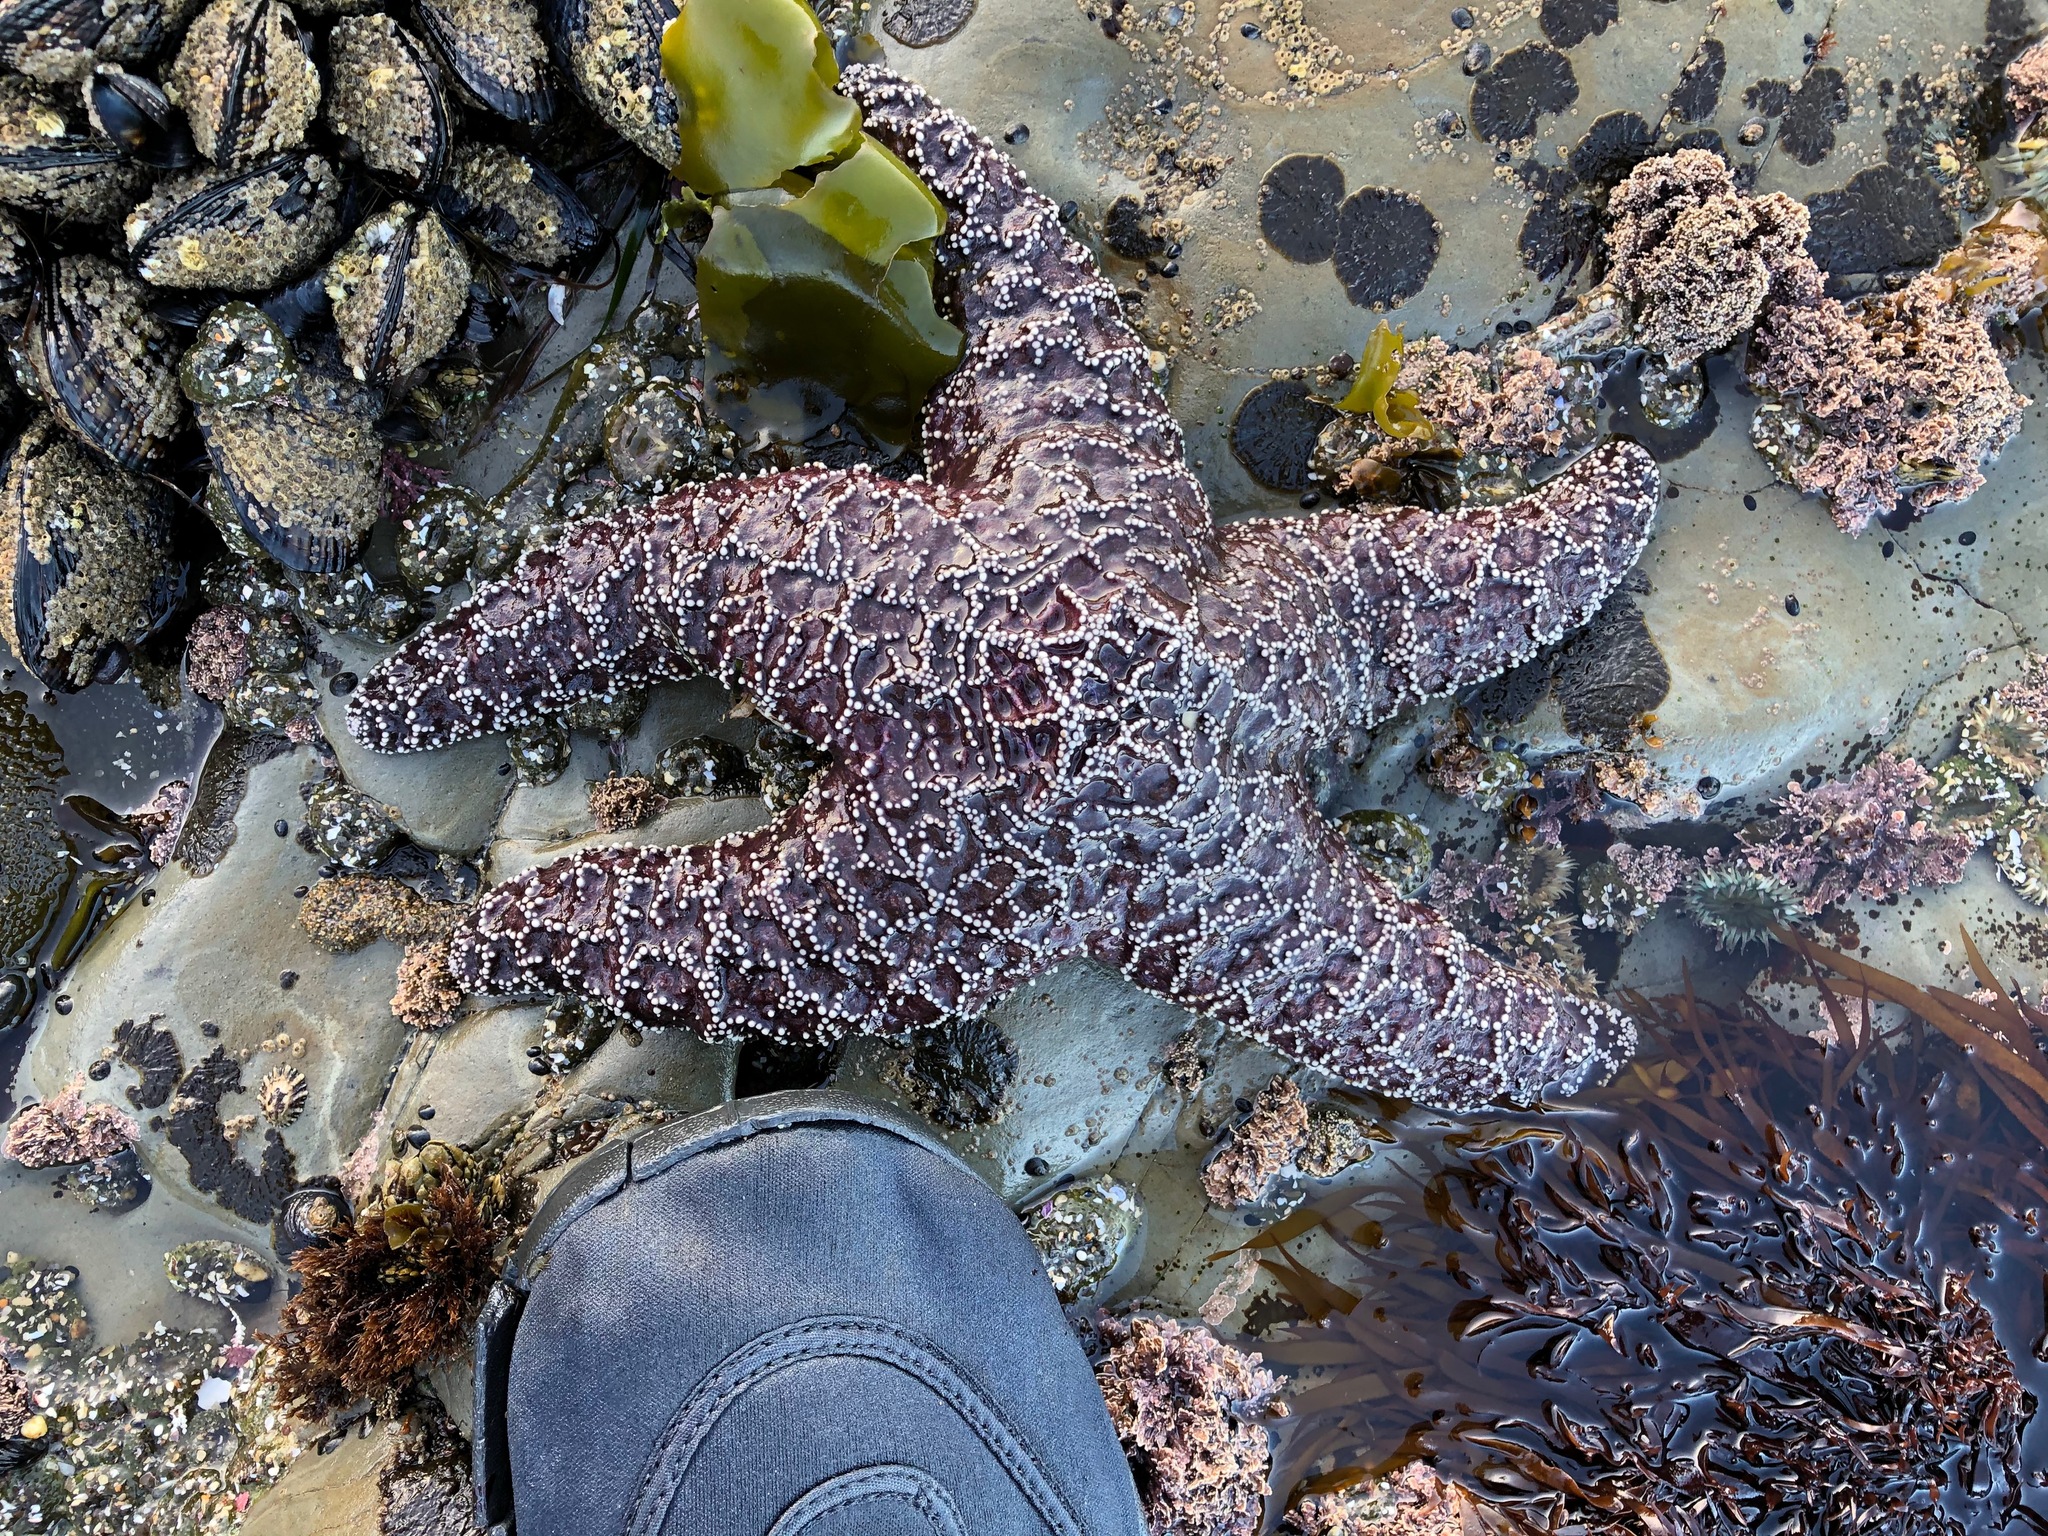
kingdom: Animalia
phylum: Echinodermata
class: Asteroidea
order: Forcipulatida
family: Asteriidae
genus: Pisaster
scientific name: Pisaster ochraceus
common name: Ochre stars
